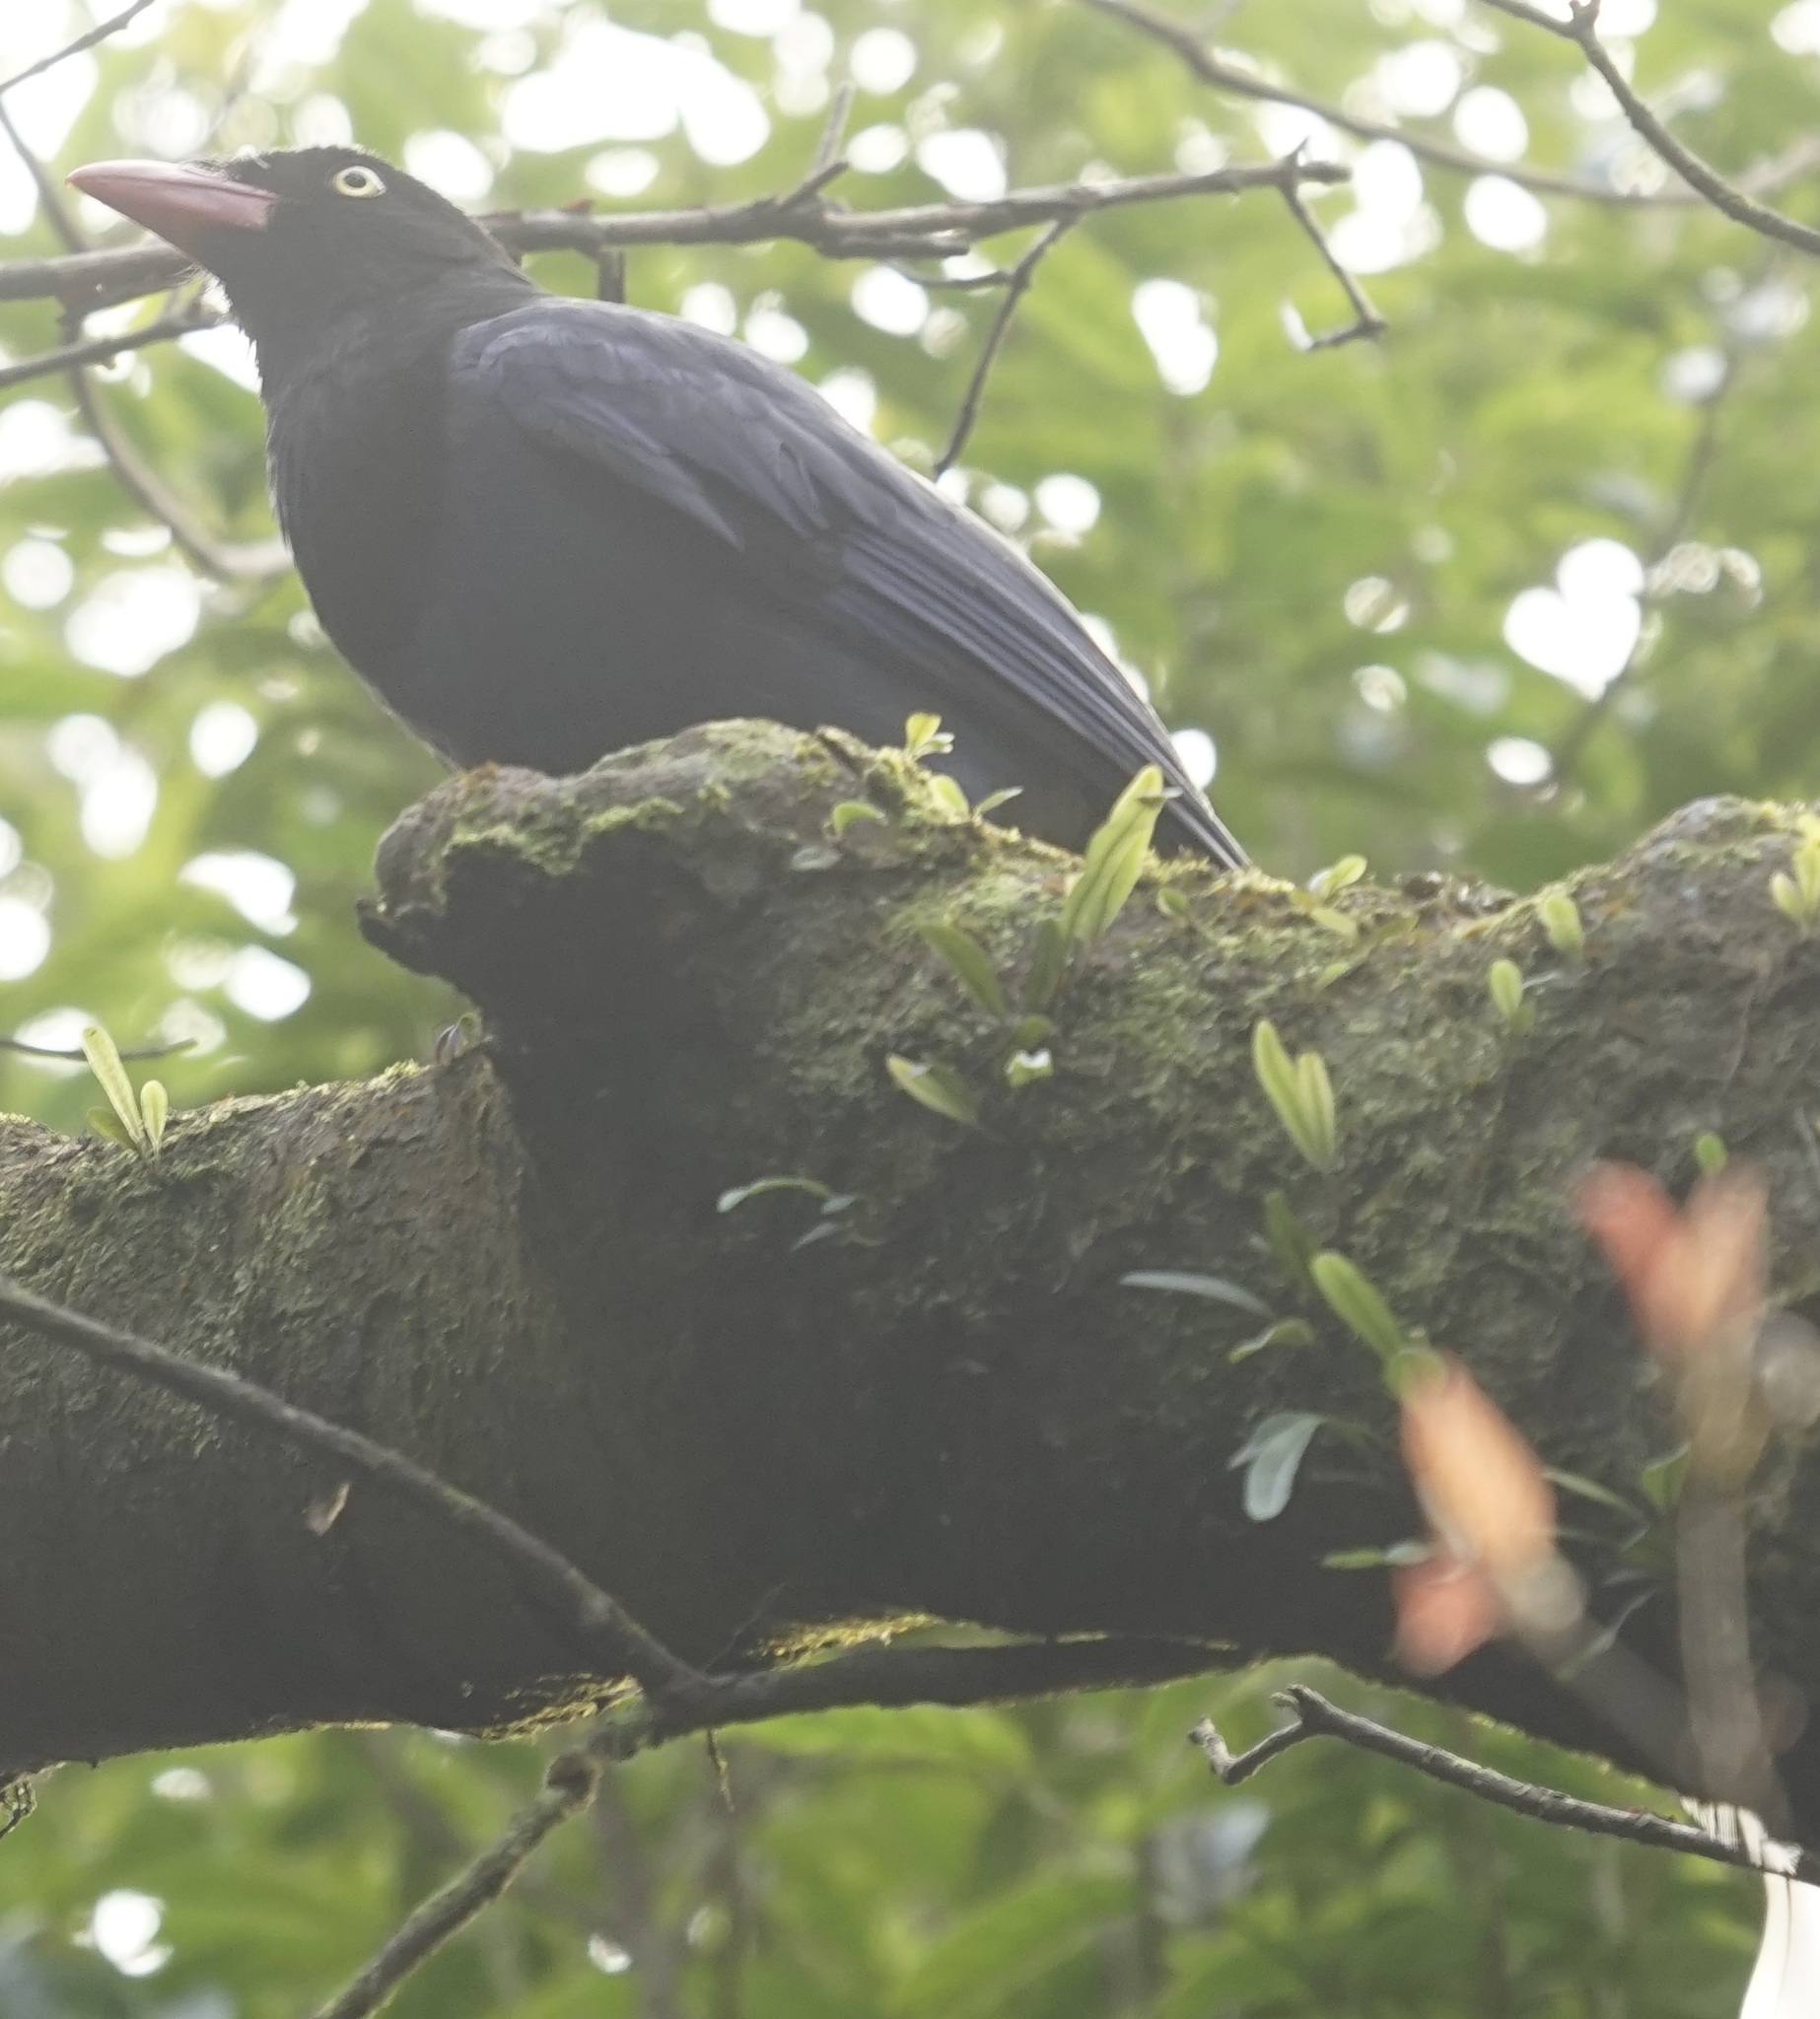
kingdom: Animalia
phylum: Chordata
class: Aves
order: Passeriformes
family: Corvidae
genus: Urocissa
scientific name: Urocissa caerulea
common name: Taiwan blue magpie
